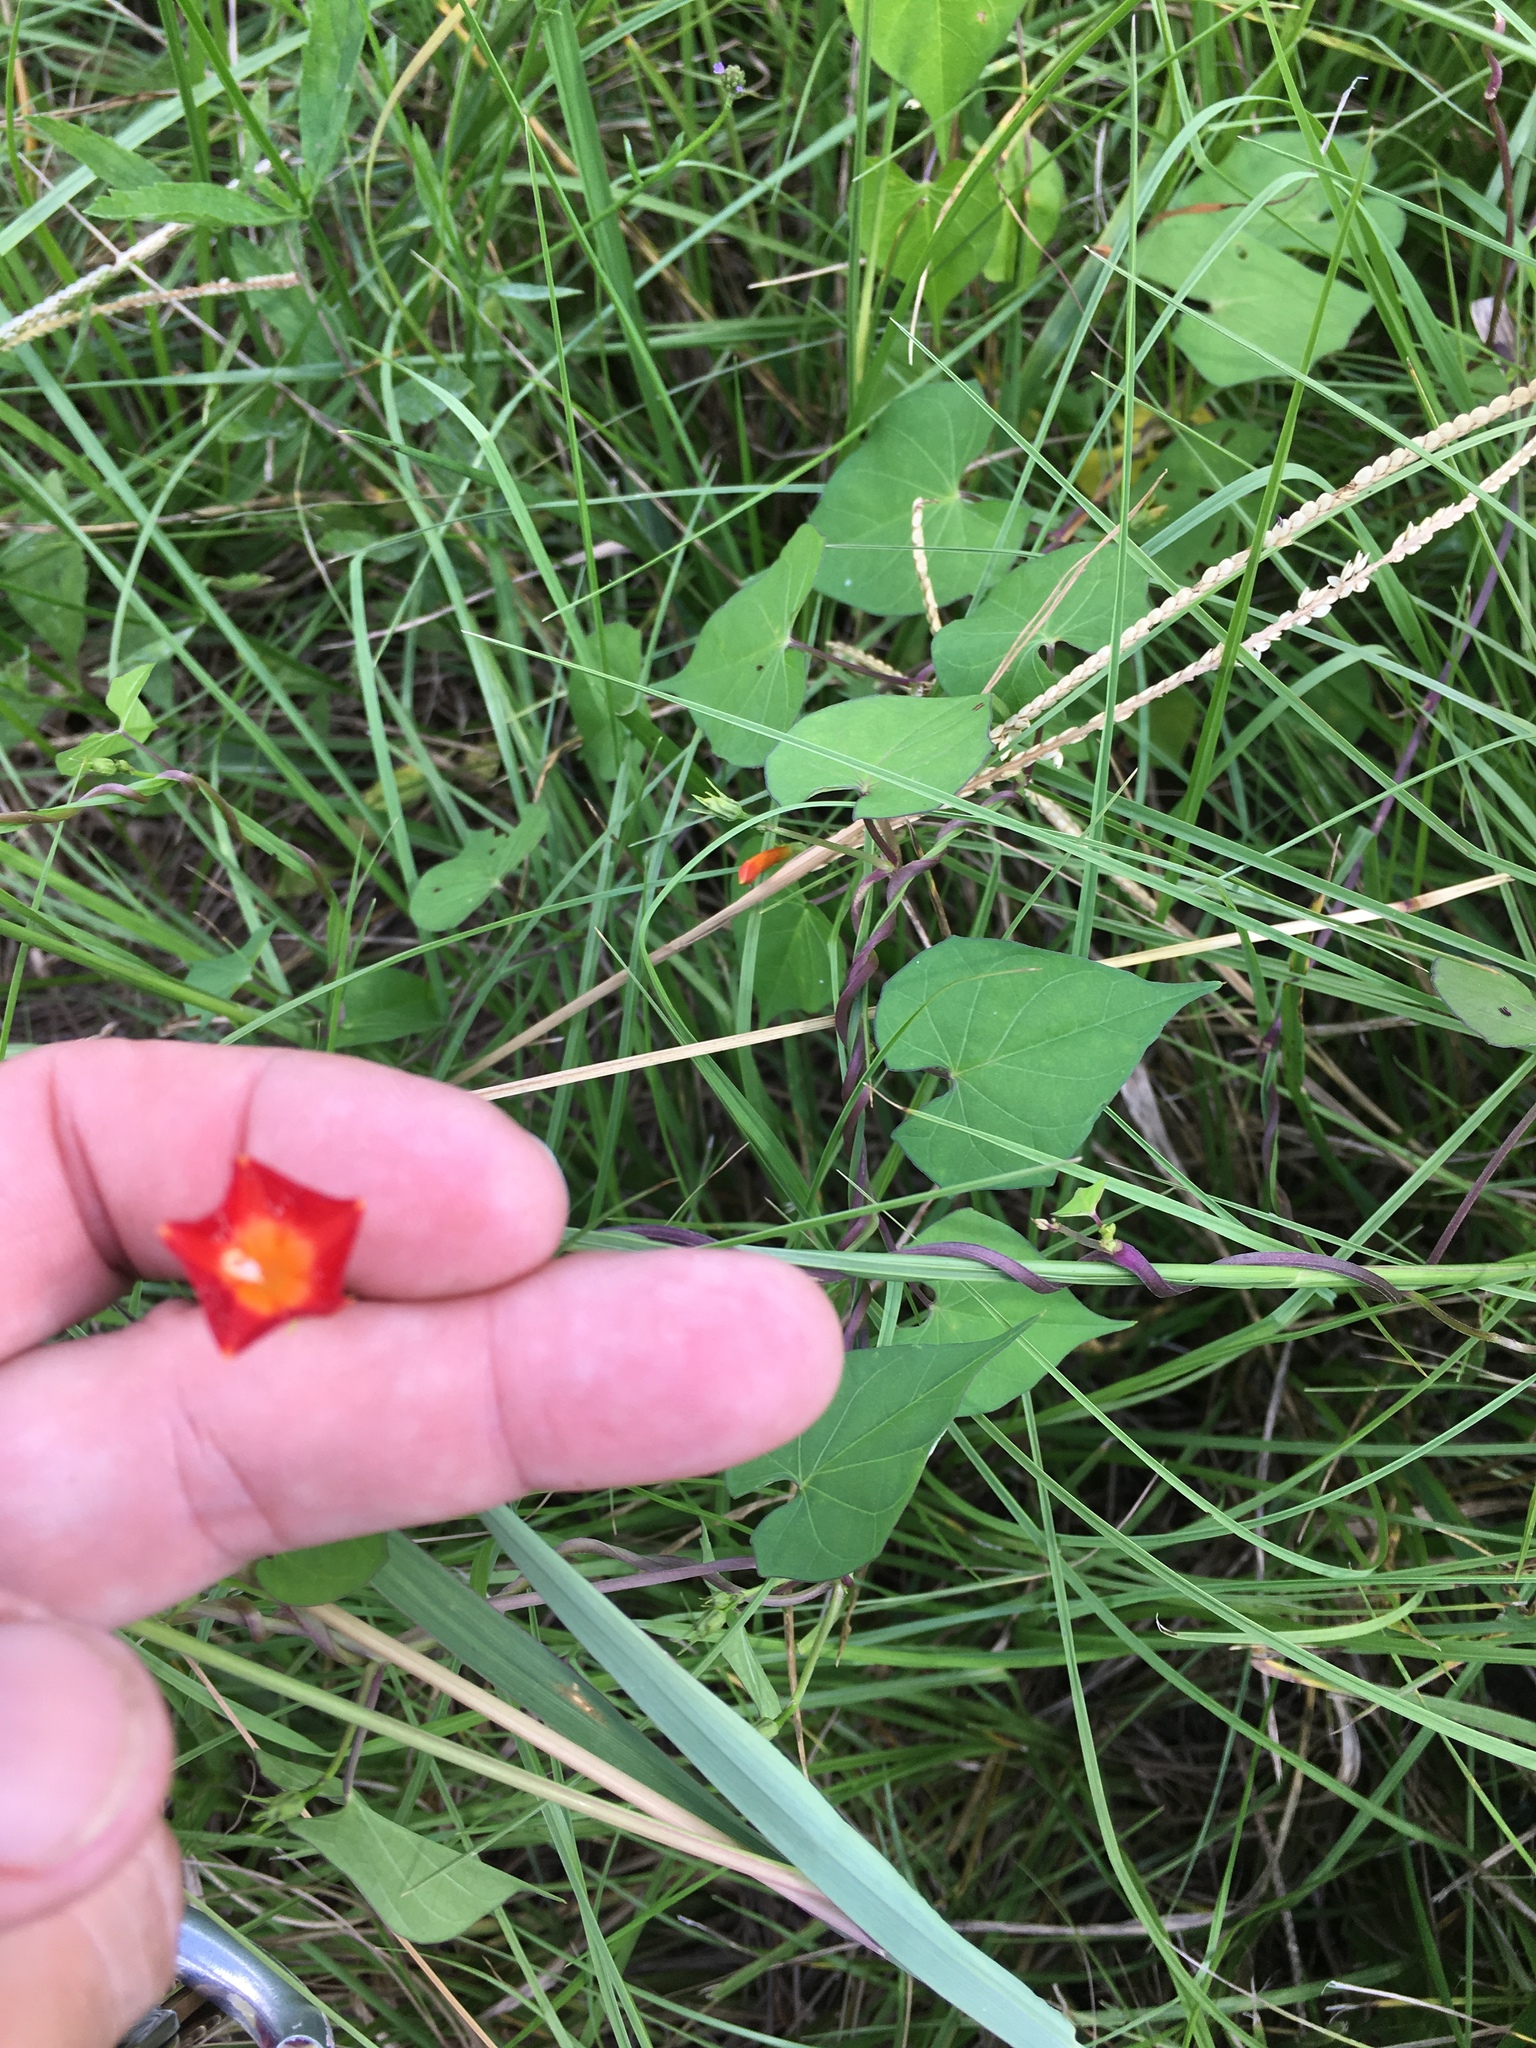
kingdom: Plantae
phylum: Tracheophyta
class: Magnoliopsida
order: Solanales
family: Convolvulaceae
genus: Ipomoea
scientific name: Ipomoea coccinea
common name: Red morning-glory
